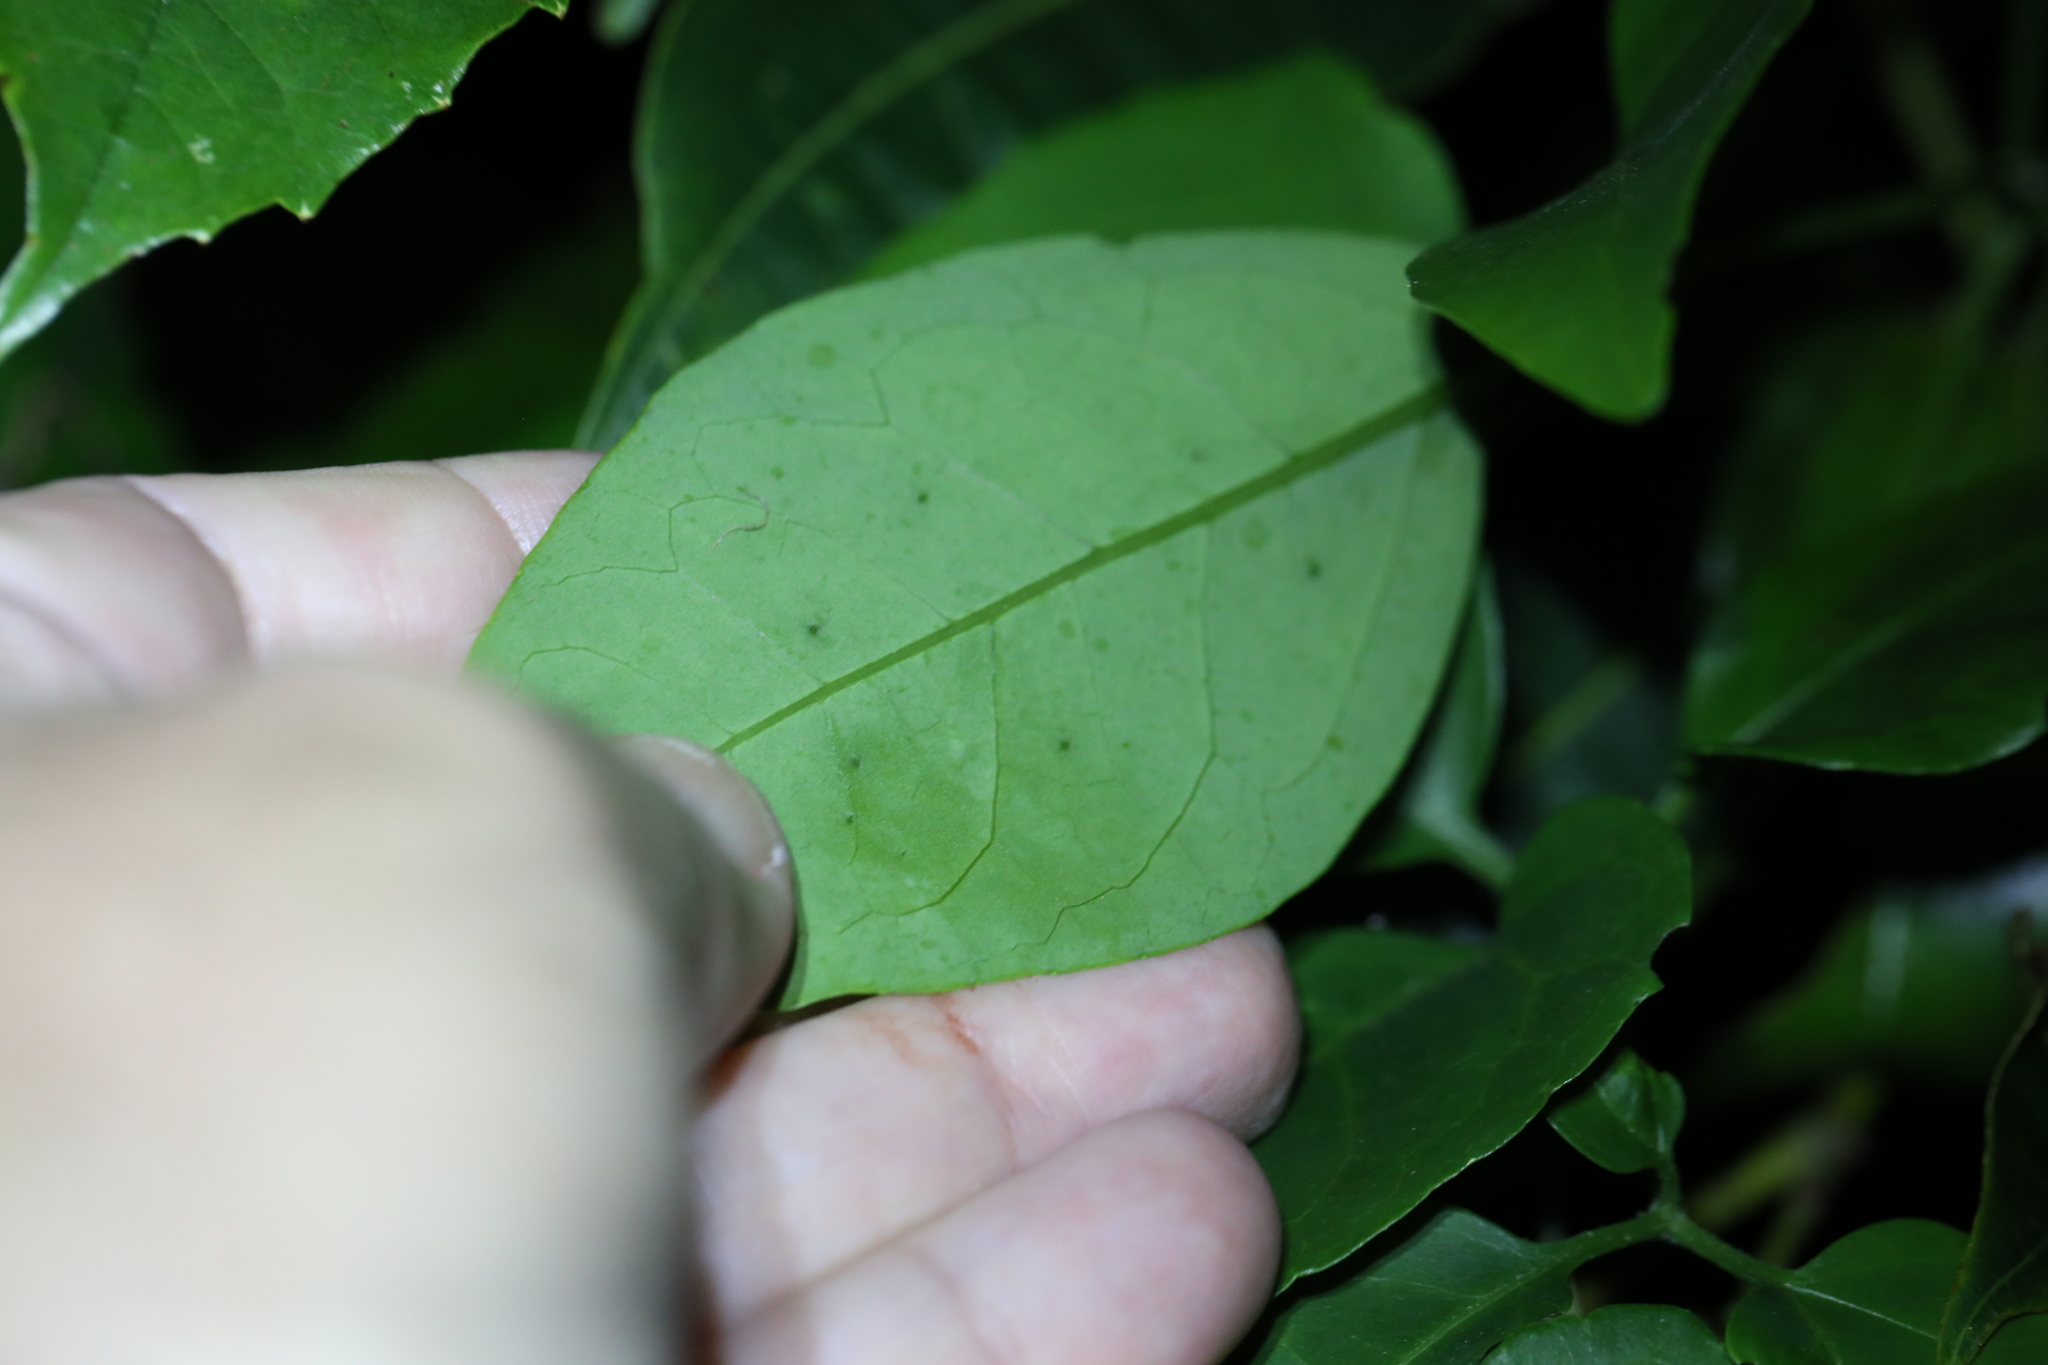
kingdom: Plantae
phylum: Tracheophyta
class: Magnoliopsida
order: Cucurbitales
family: Cucurbitaceae
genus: Nothoalsomitra
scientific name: Nothoalsomitra suberosa
